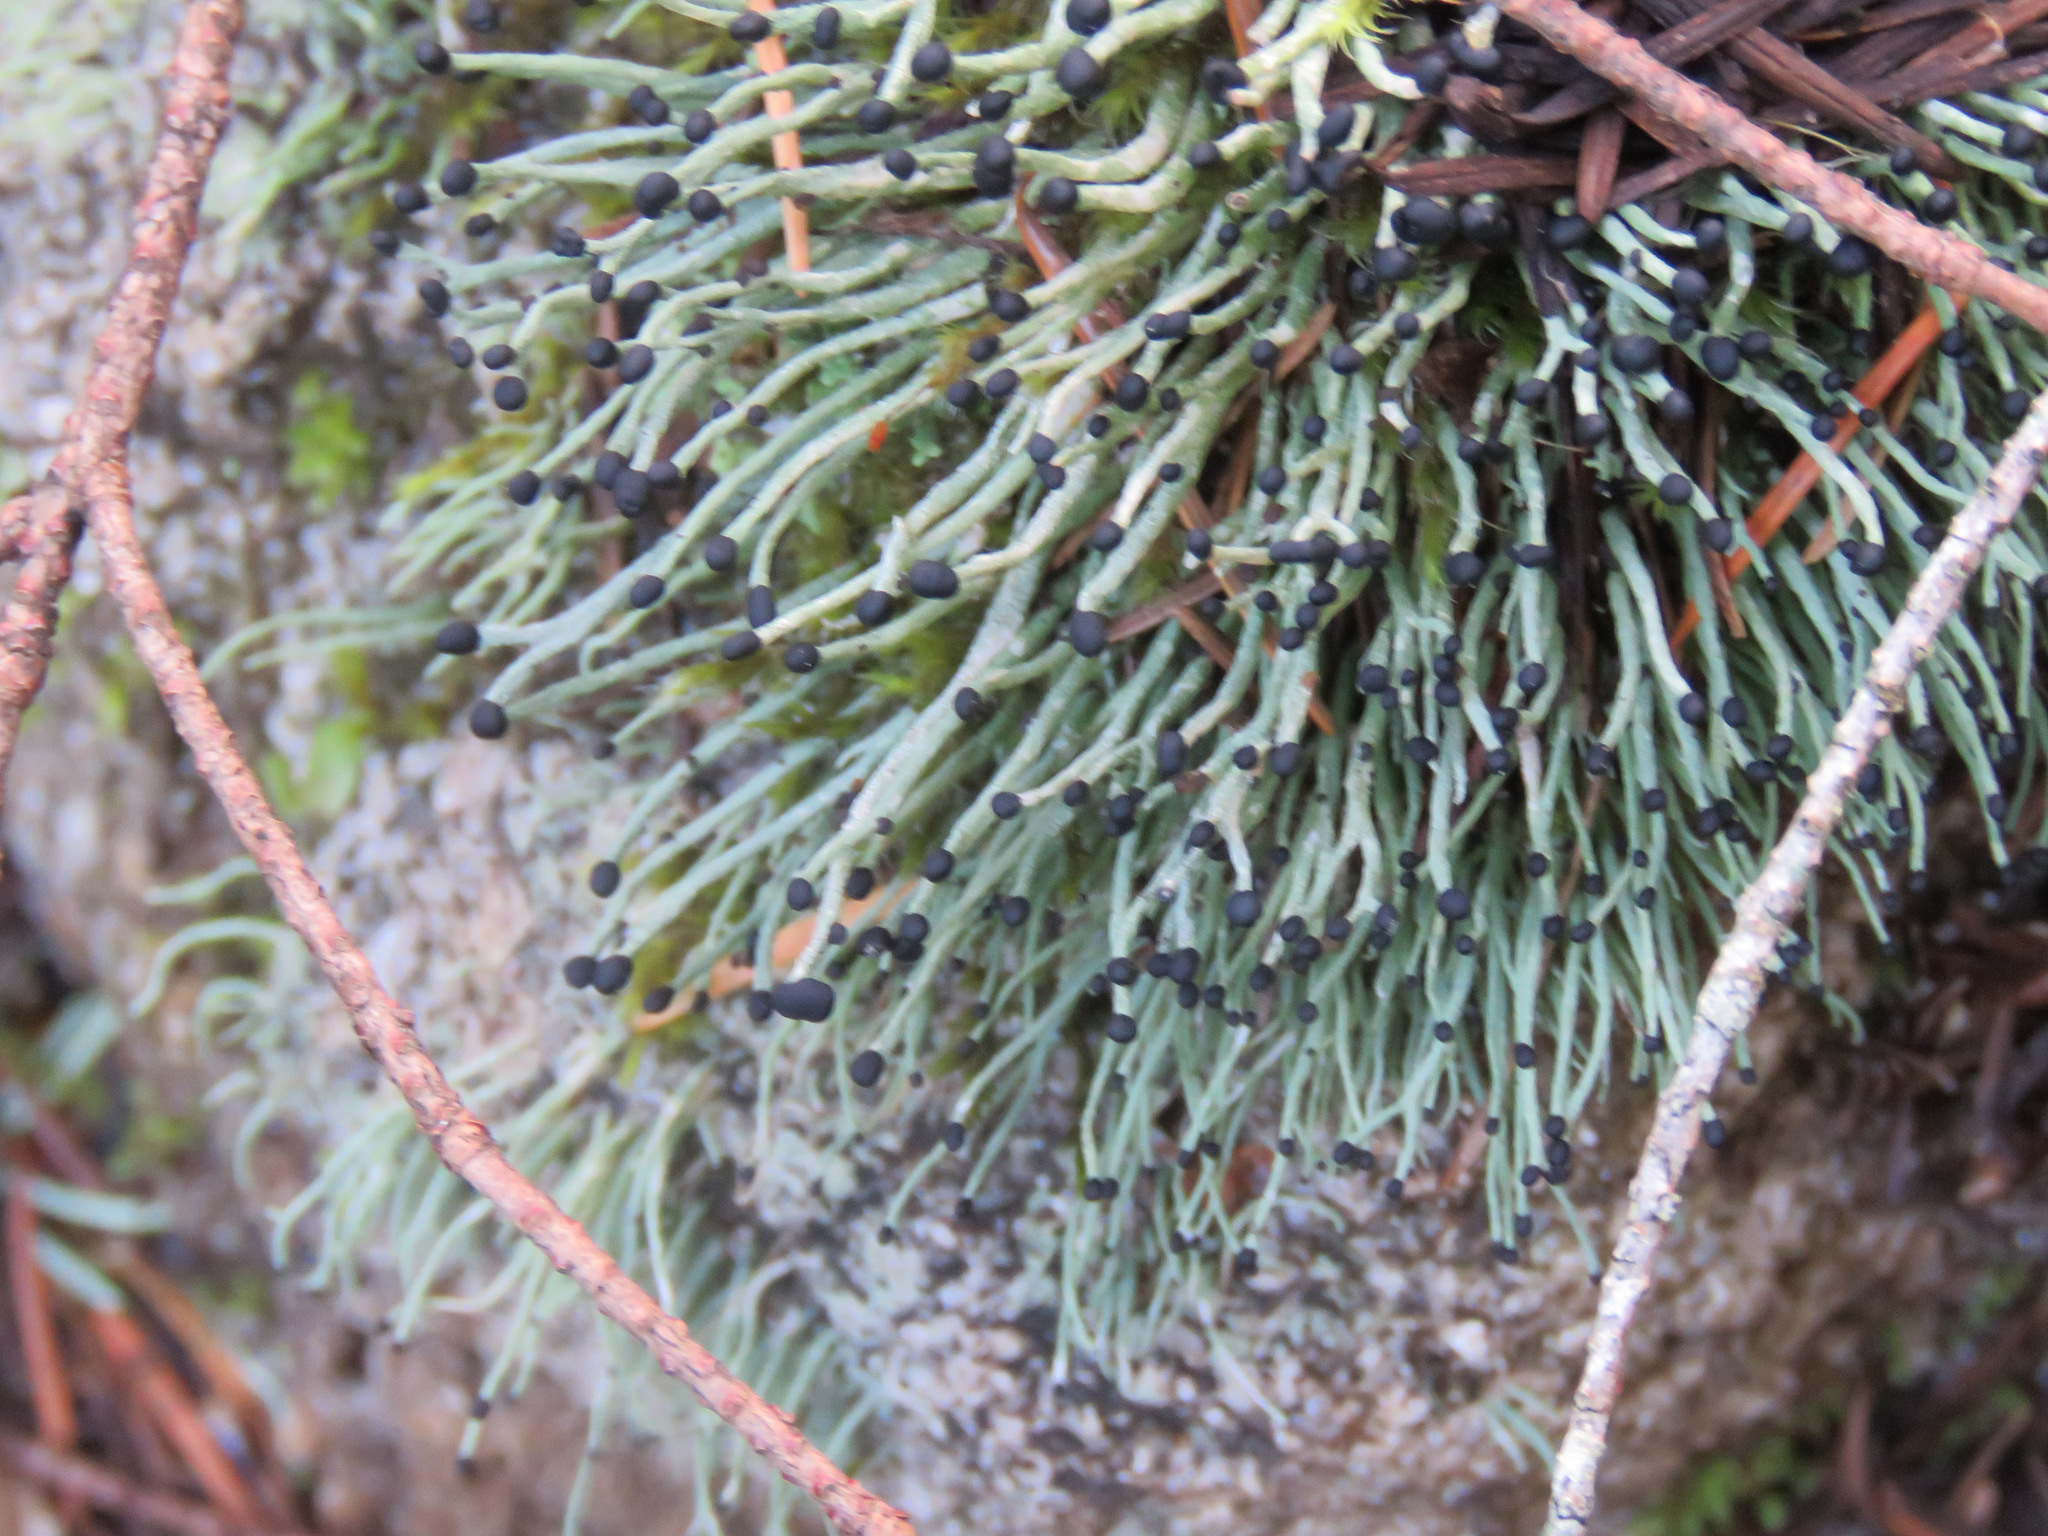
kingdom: Fungi
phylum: Ascomycota
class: Lecanoromycetes
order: Lecanorales
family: Cladoniaceae
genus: Pilophorus
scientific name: Pilophorus acicularis
